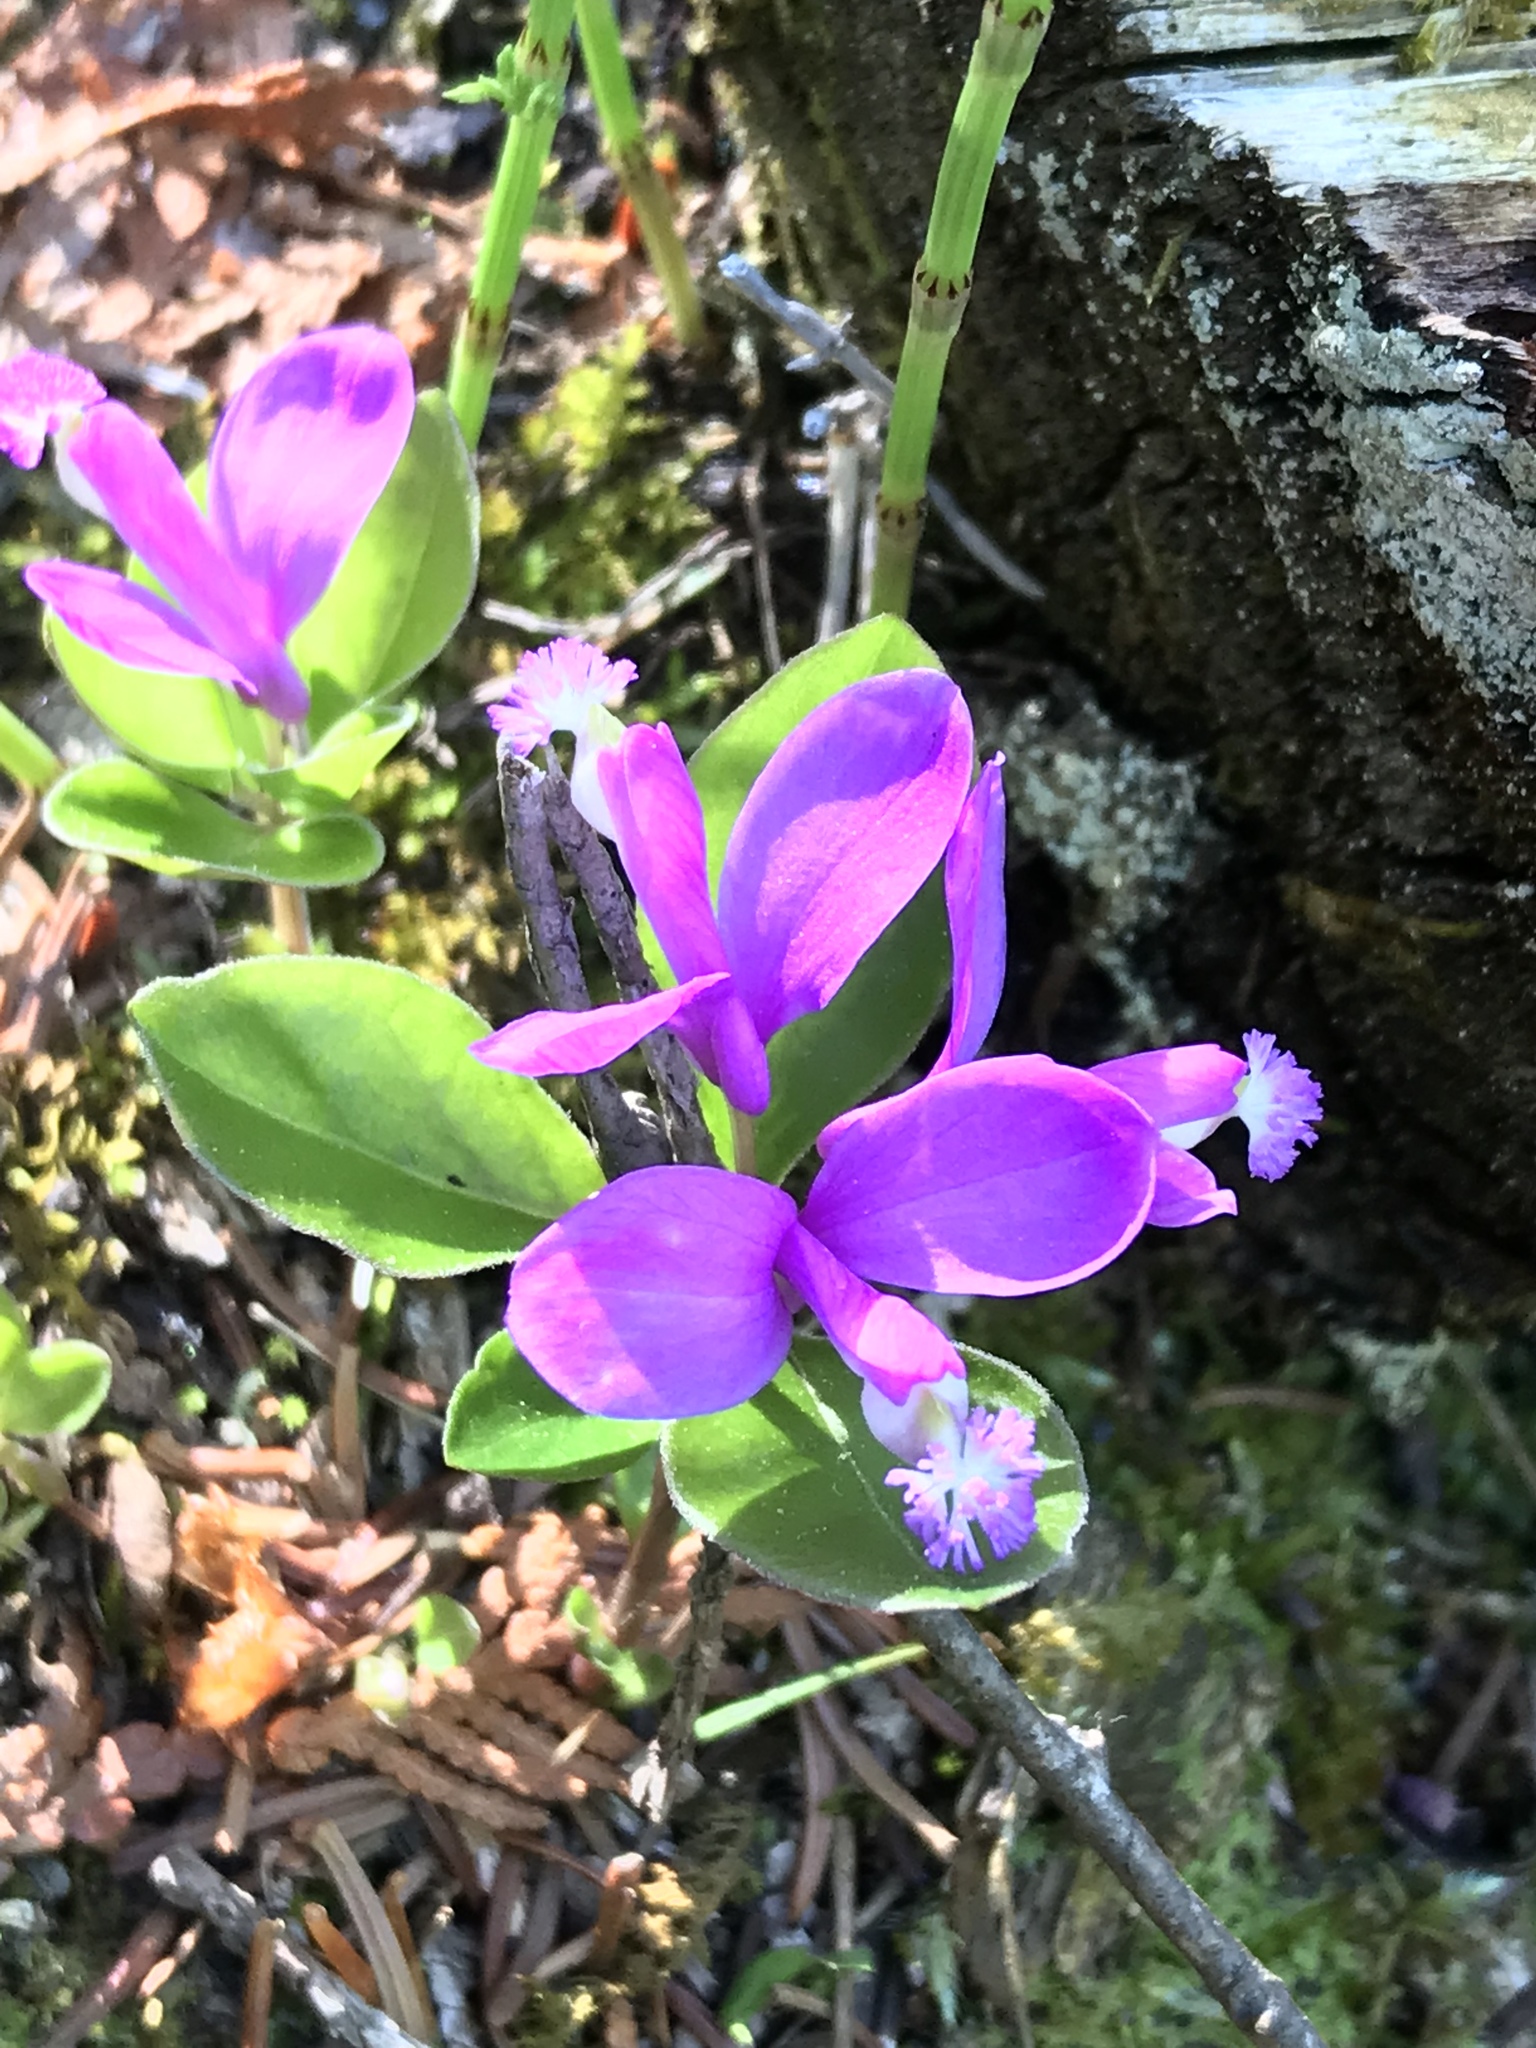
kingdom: Plantae
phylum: Tracheophyta
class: Magnoliopsida
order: Fabales
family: Polygalaceae
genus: Polygaloides
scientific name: Polygaloides paucifolia
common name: Bird-on-the-wing
